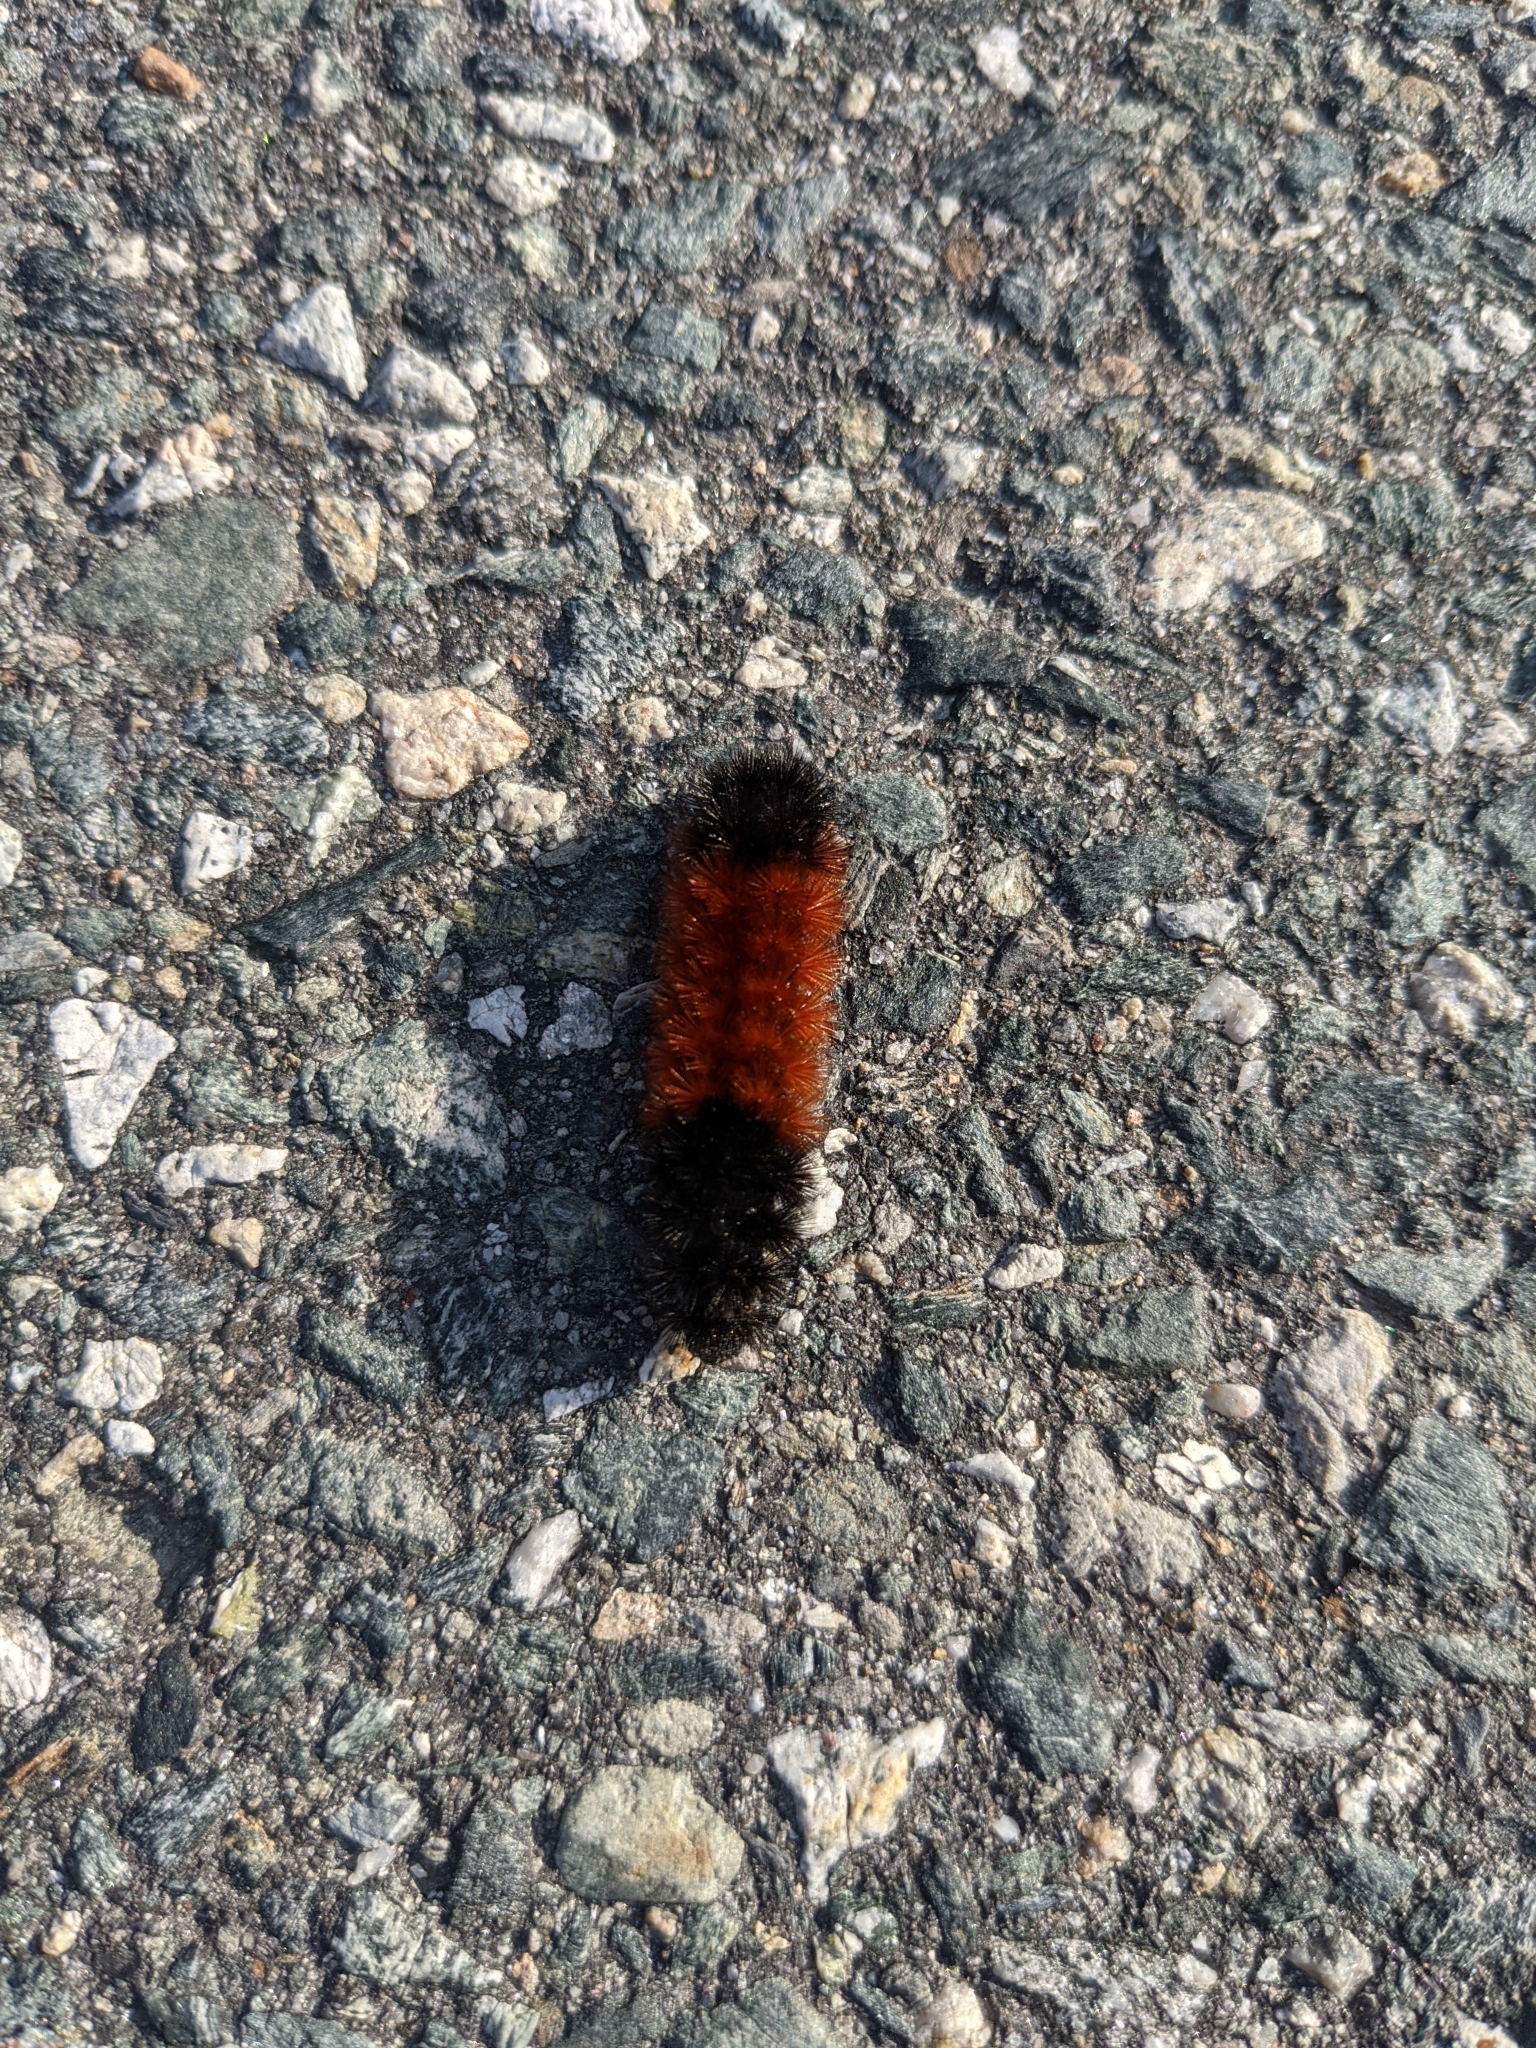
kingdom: Animalia
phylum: Arthropoda
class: Insecta
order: Lepidoptera
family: Erebidae
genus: Pyrrharctia
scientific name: Pyrrharctia isabella
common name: Isabella tiger moth
